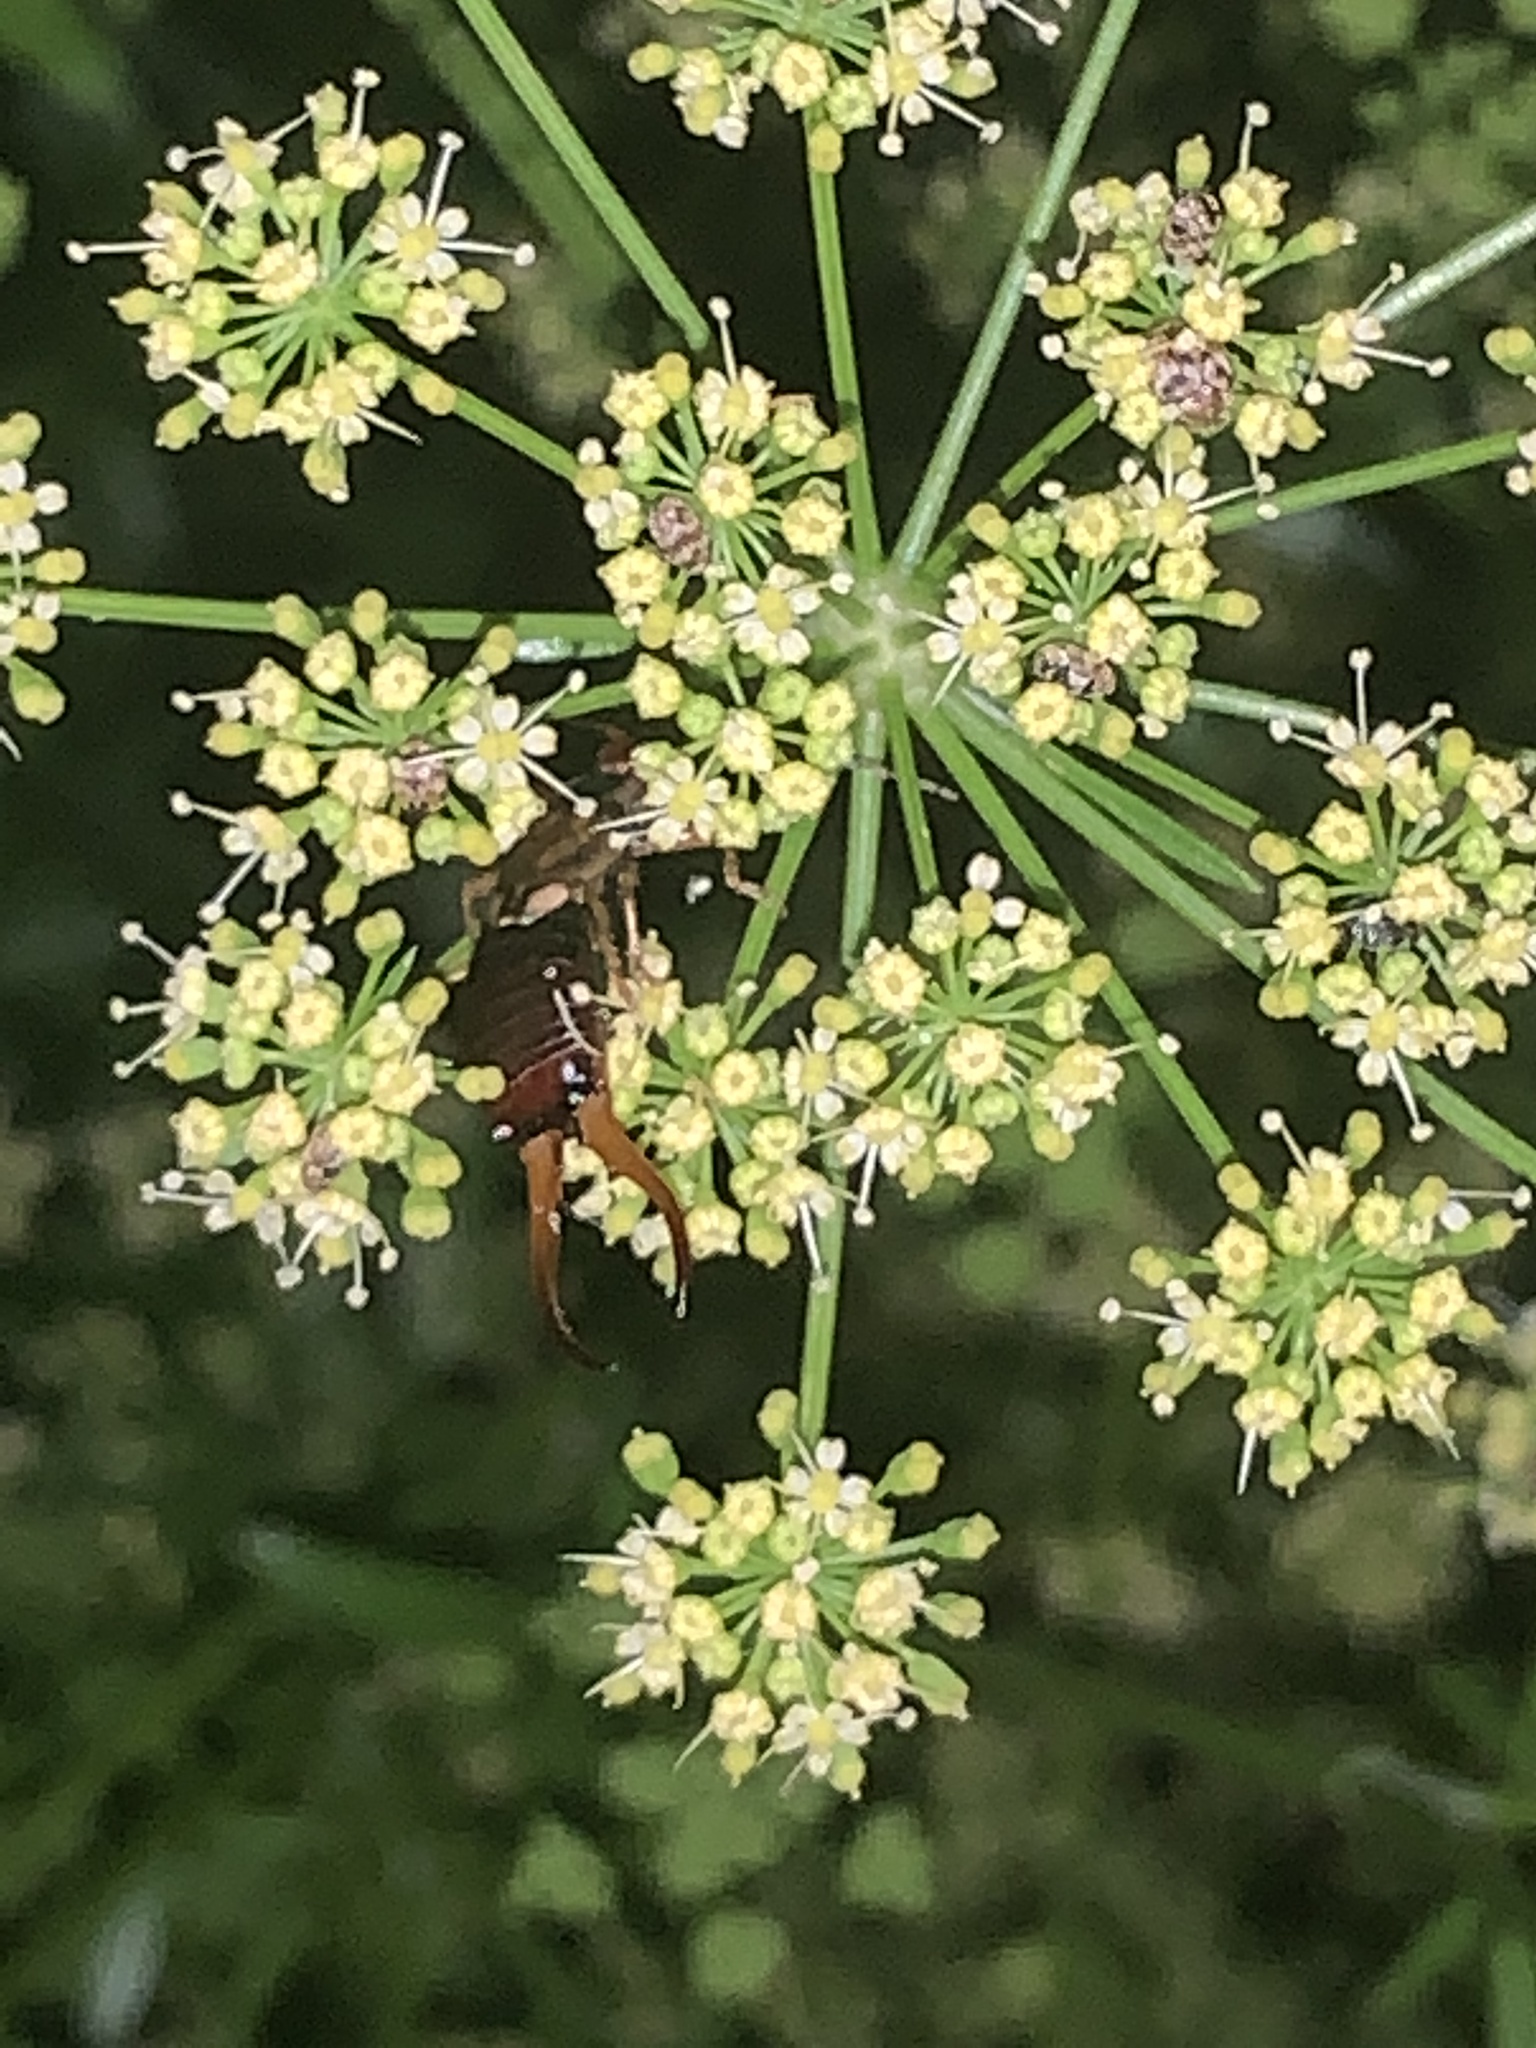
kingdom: Animalia
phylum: Arthropoda
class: Insecta
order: Dermaptera
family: Forficulidae
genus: Forficula
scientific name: Forficula
